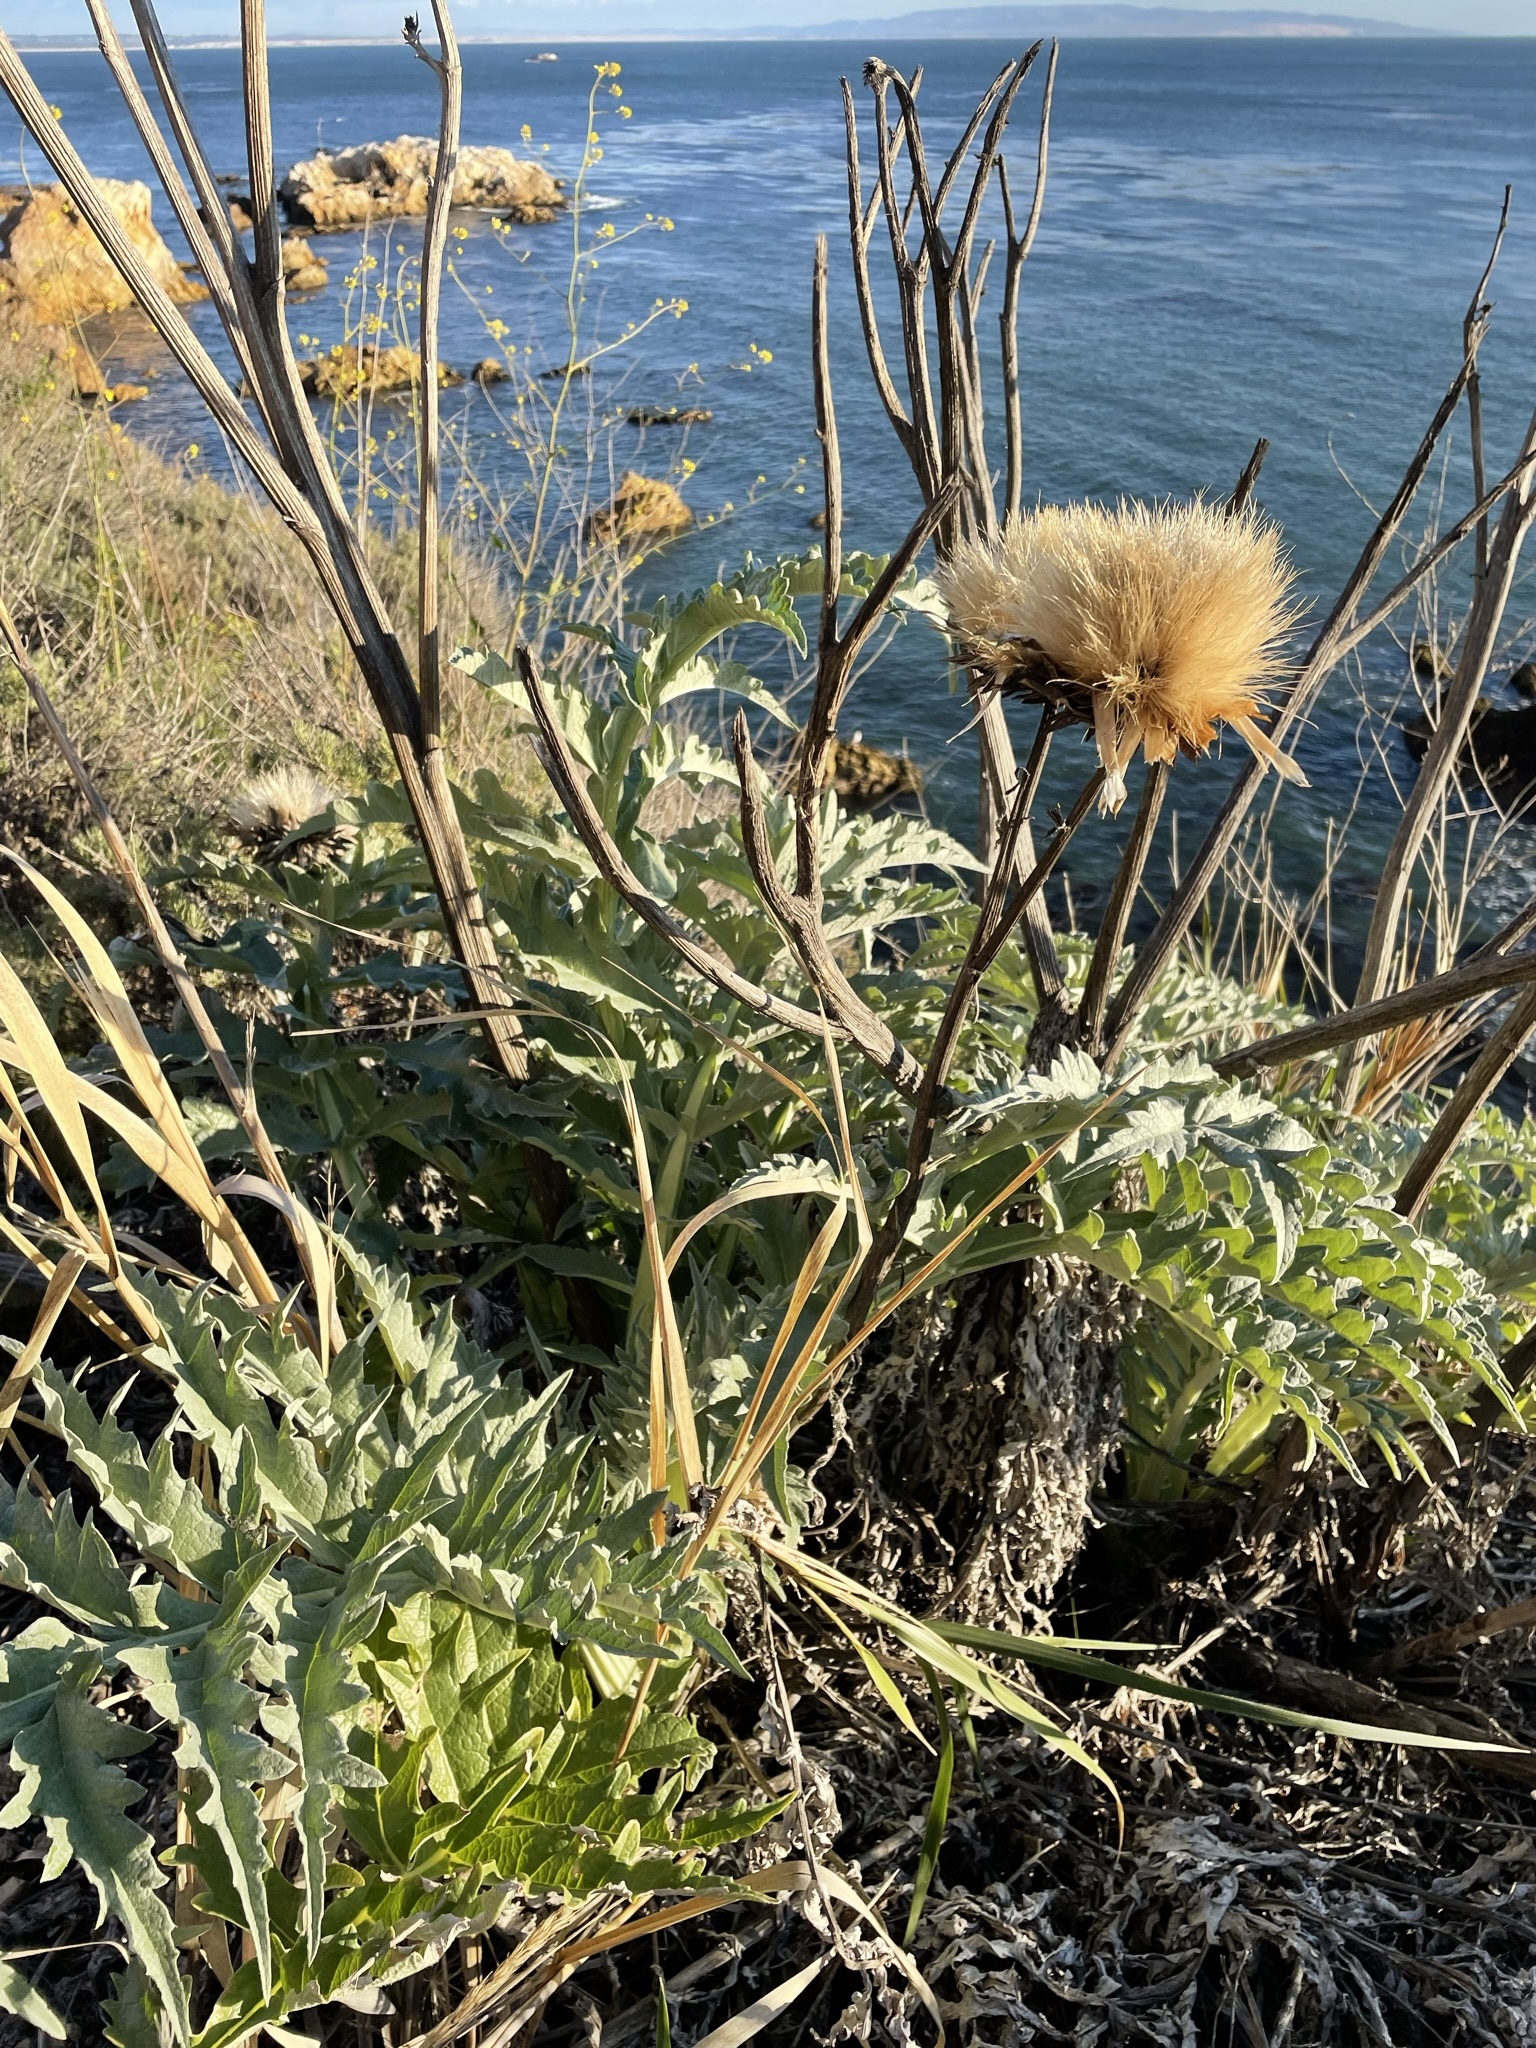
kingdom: Plantae
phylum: Tracheophyta
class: Magnoliopsida
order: Asterales
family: Asteraceae
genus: Cynara
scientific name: Cynara cardunculus
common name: Globe artichoke
